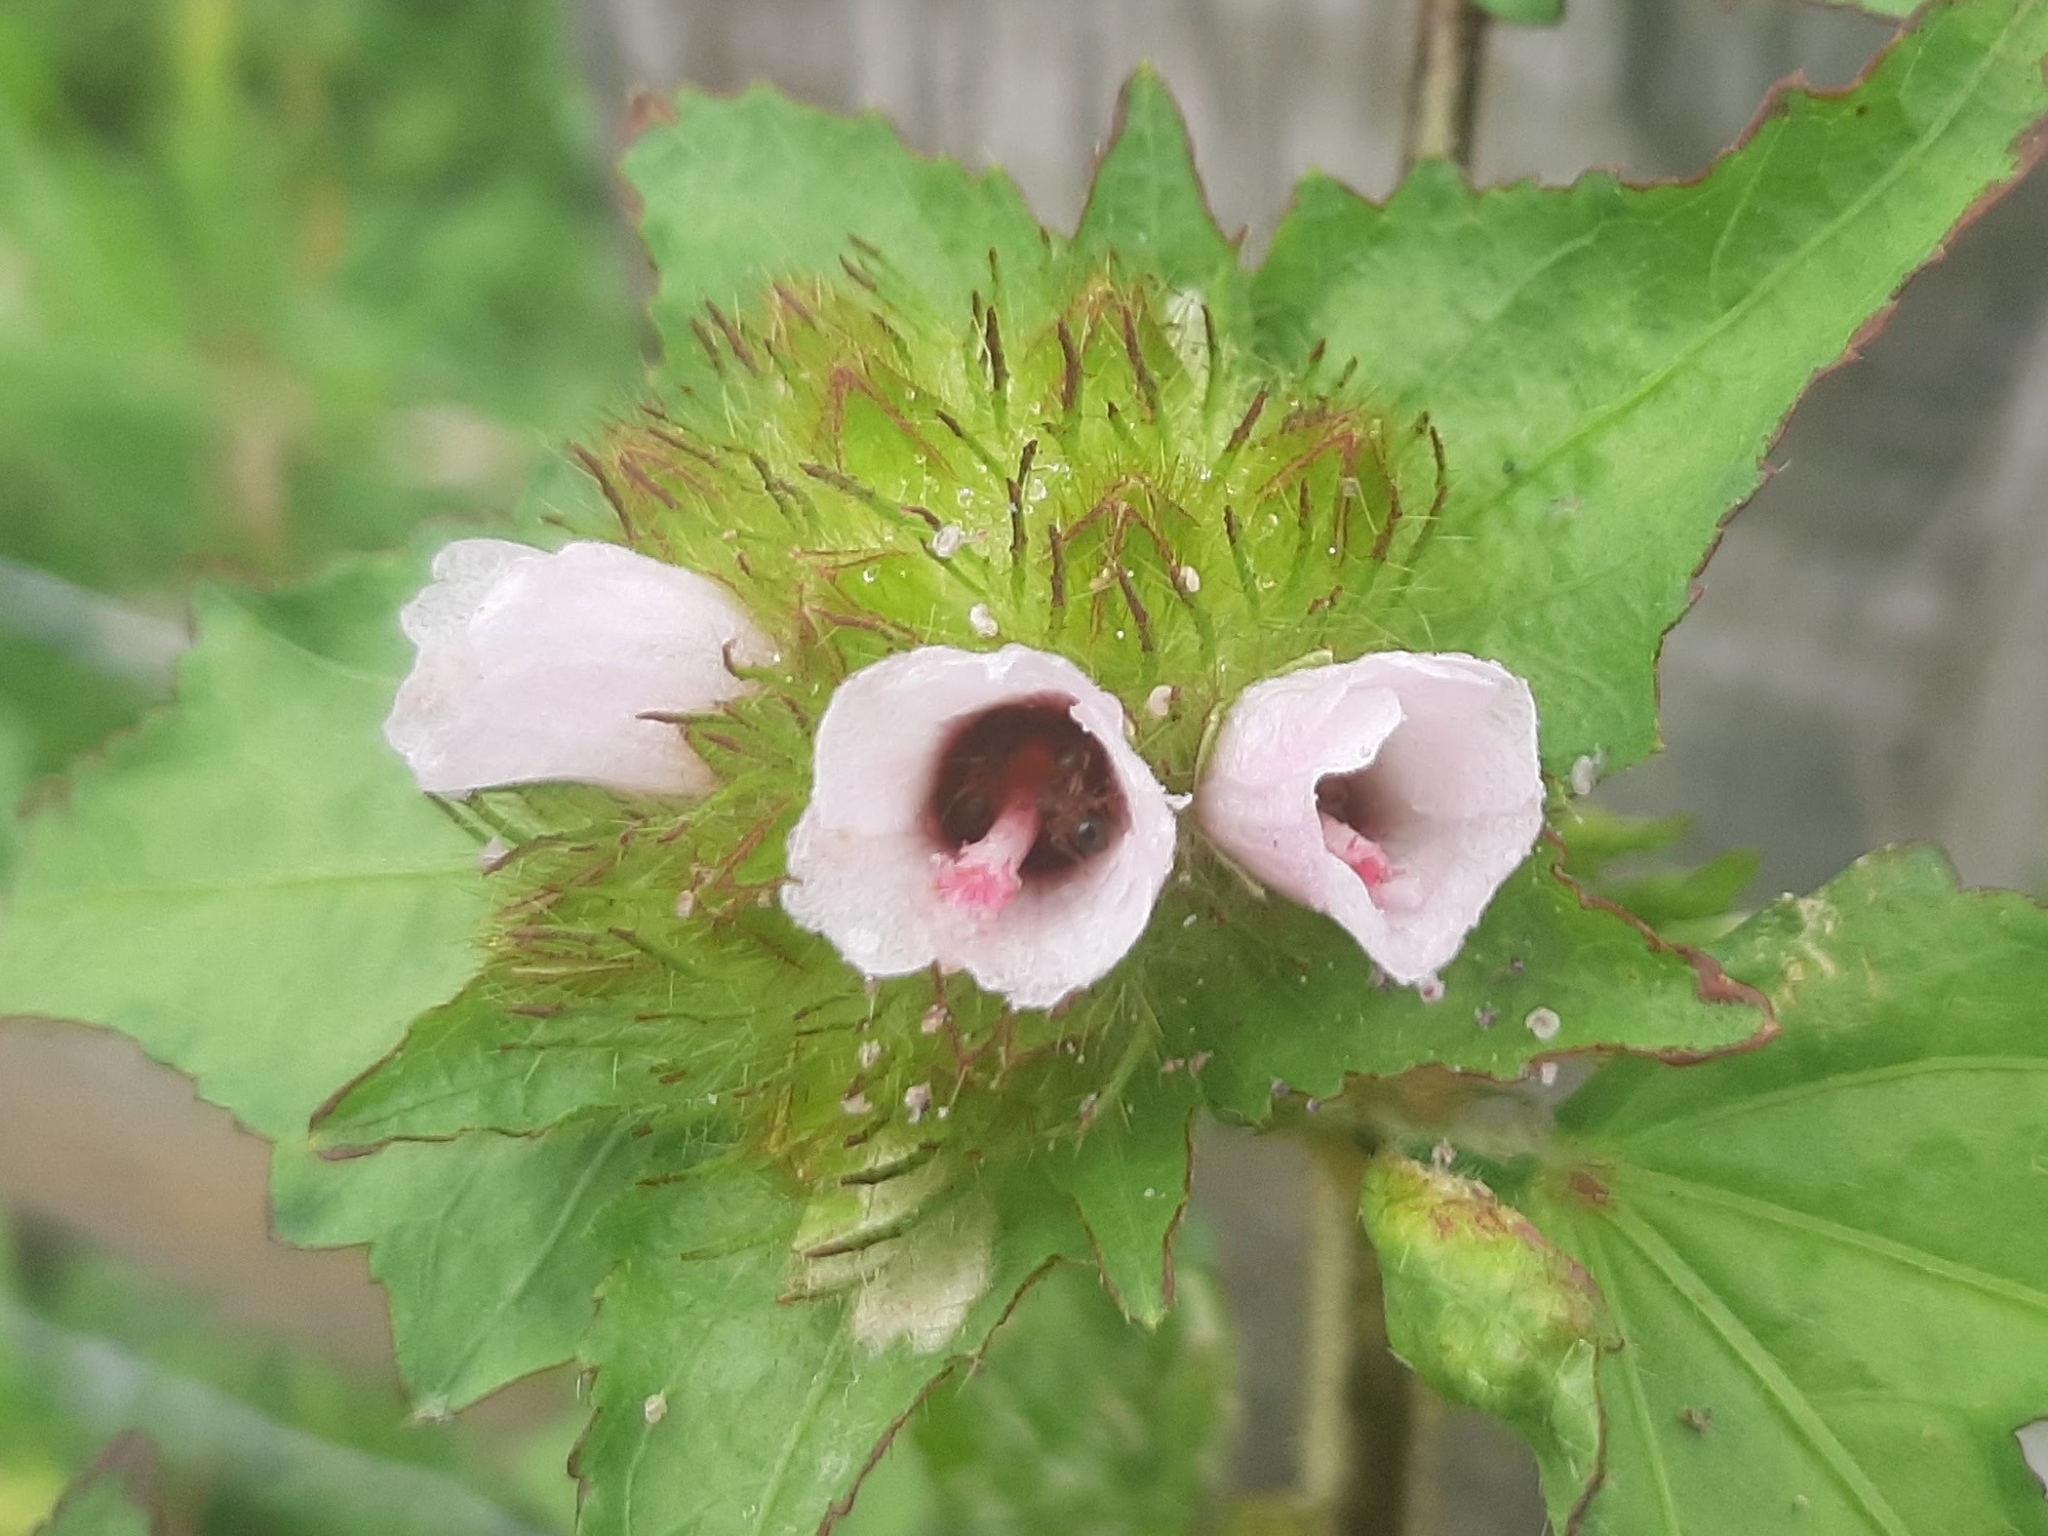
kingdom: Plantae
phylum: Tracheophyta
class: Magnoliopsida
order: Malvales
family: Malvaceae
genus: Malachra
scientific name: Malachra radiata
